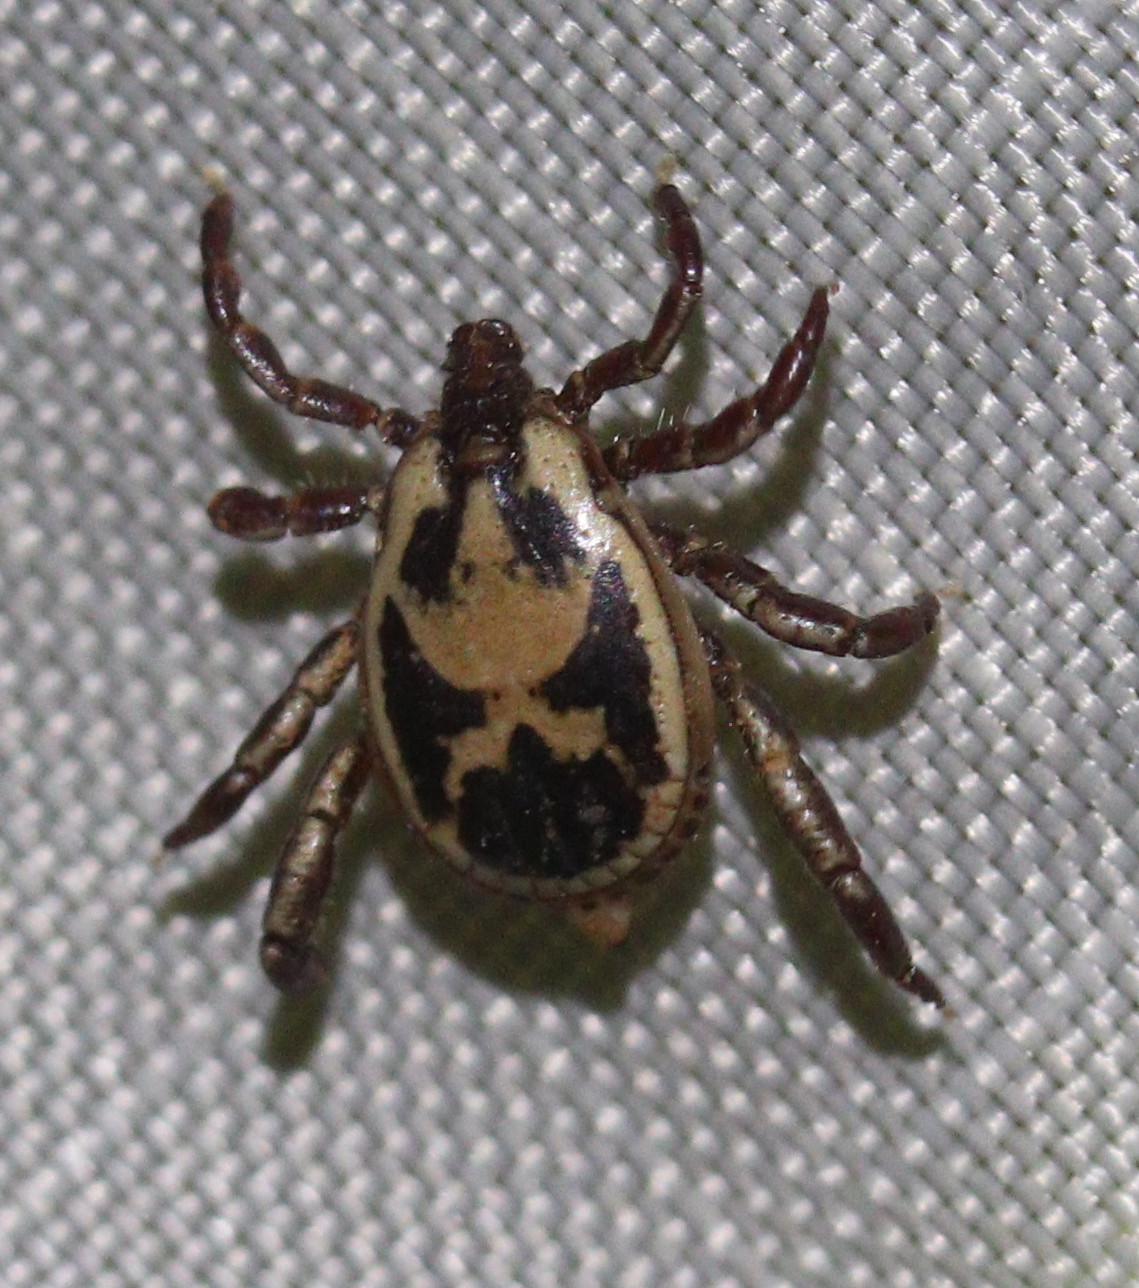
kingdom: Animalia
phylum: Arthropoda
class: Arachnida
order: Ixodida
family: Ixodidae
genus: Rhipicephalus
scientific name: Rhipicephalus pulchellus
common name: Yellow backed tick
